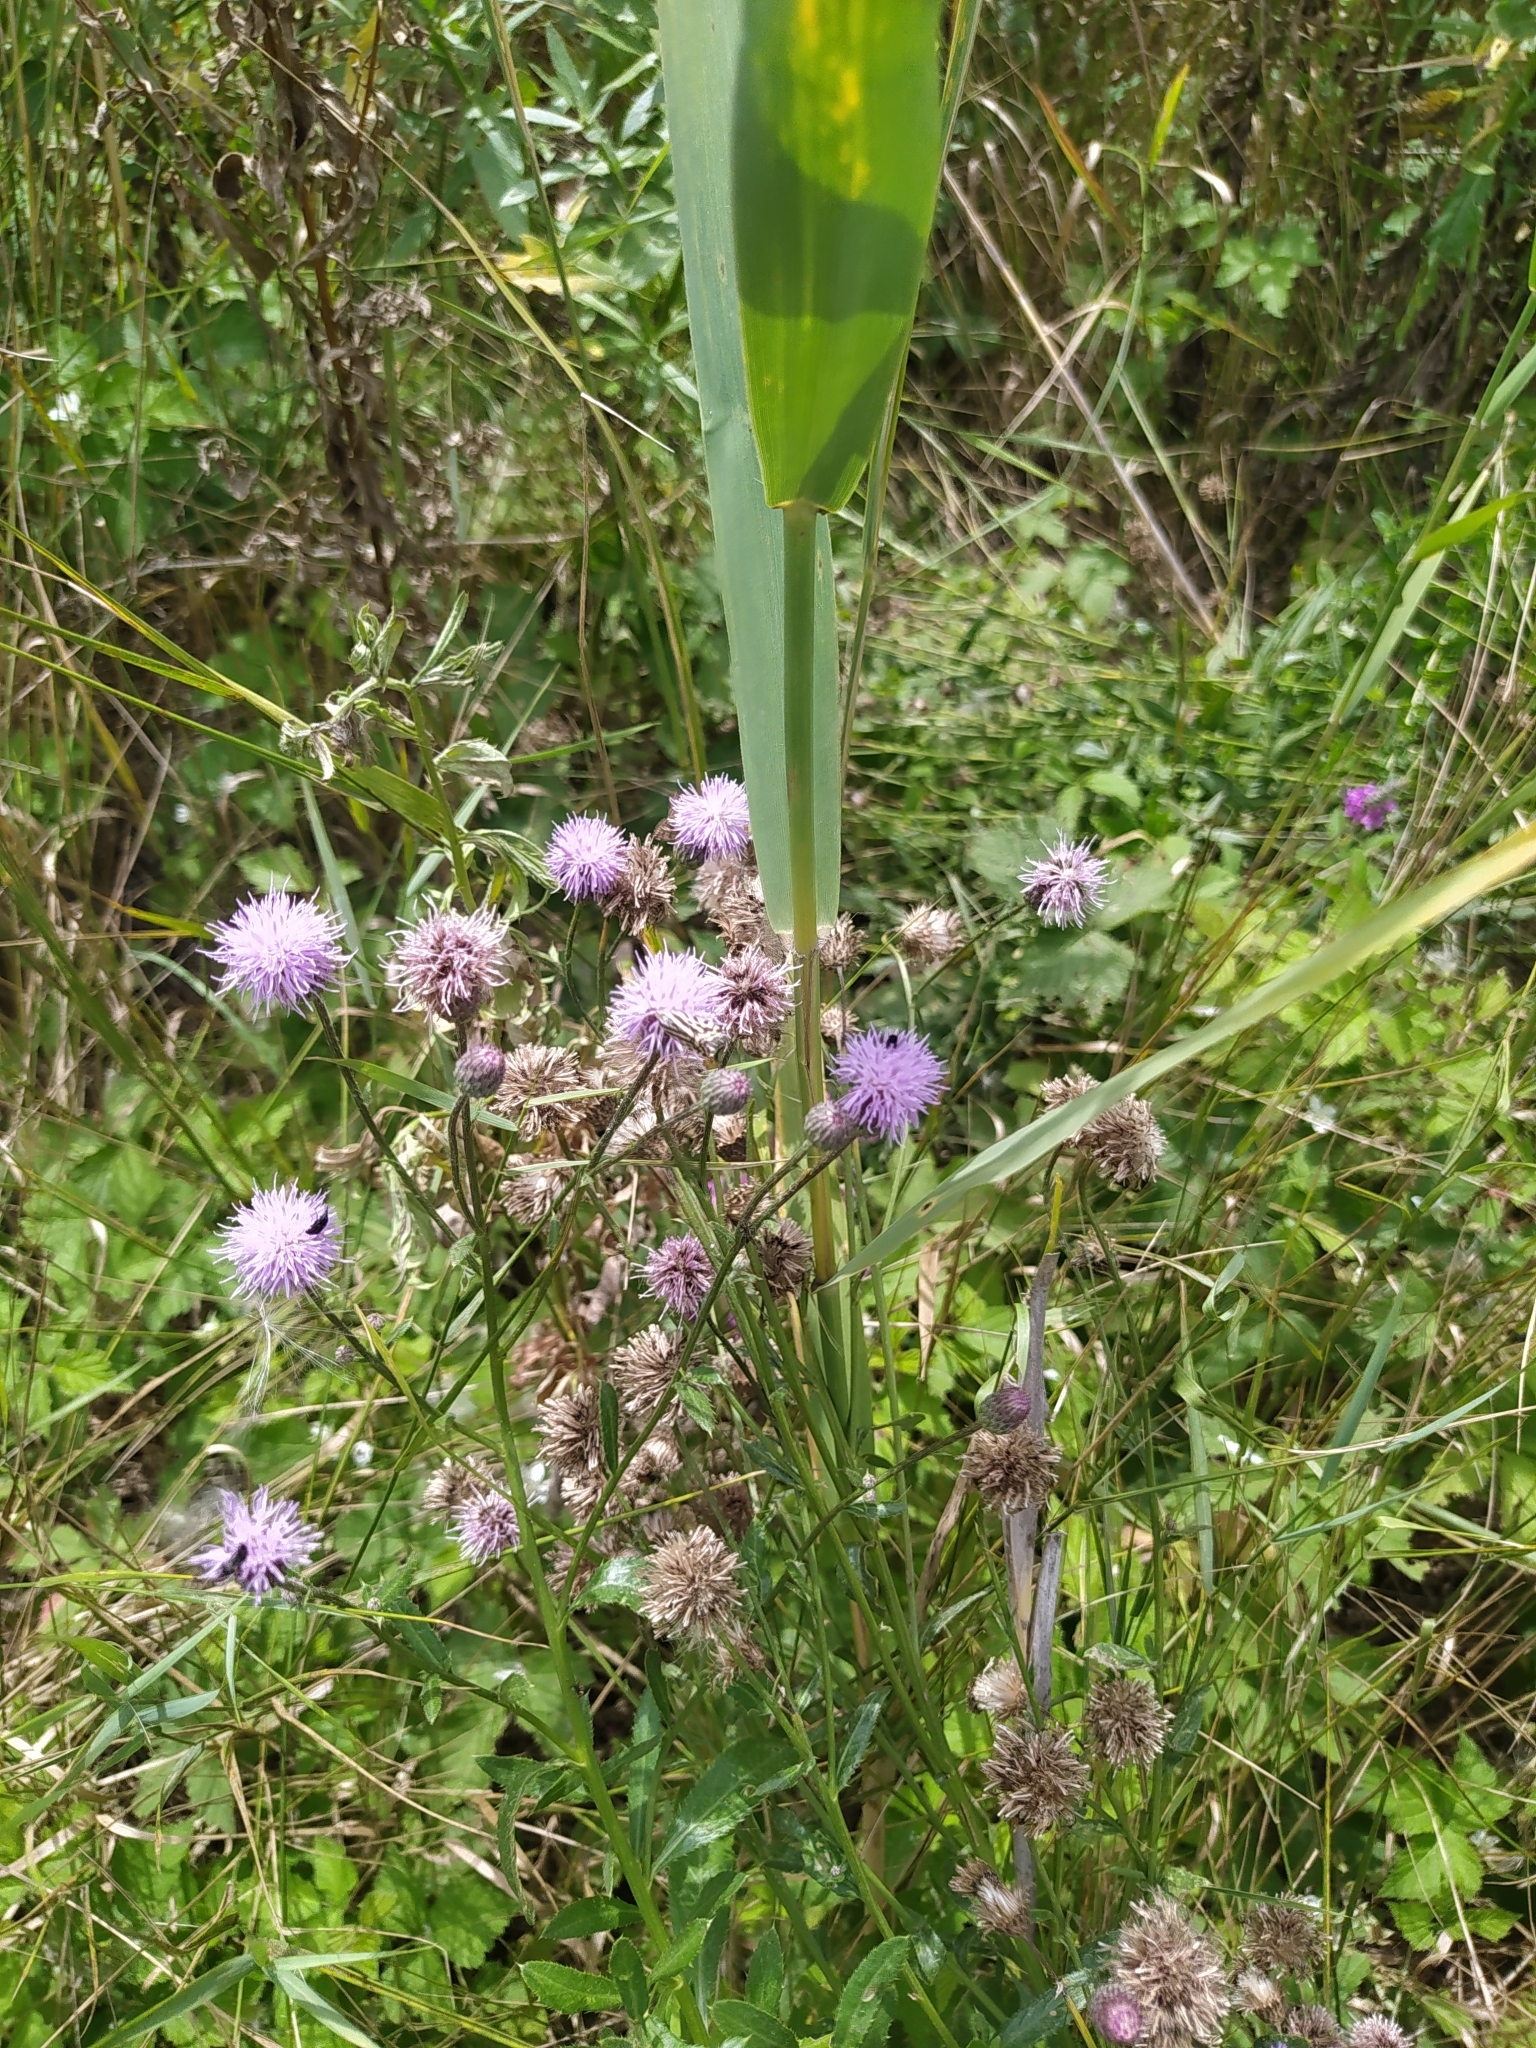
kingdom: Plantae
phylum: Tracheophyta
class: Magnoliopsida
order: Asterales
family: Asteraceae
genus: Cirsium
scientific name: Cirsium arvense
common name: Creeping thistle
